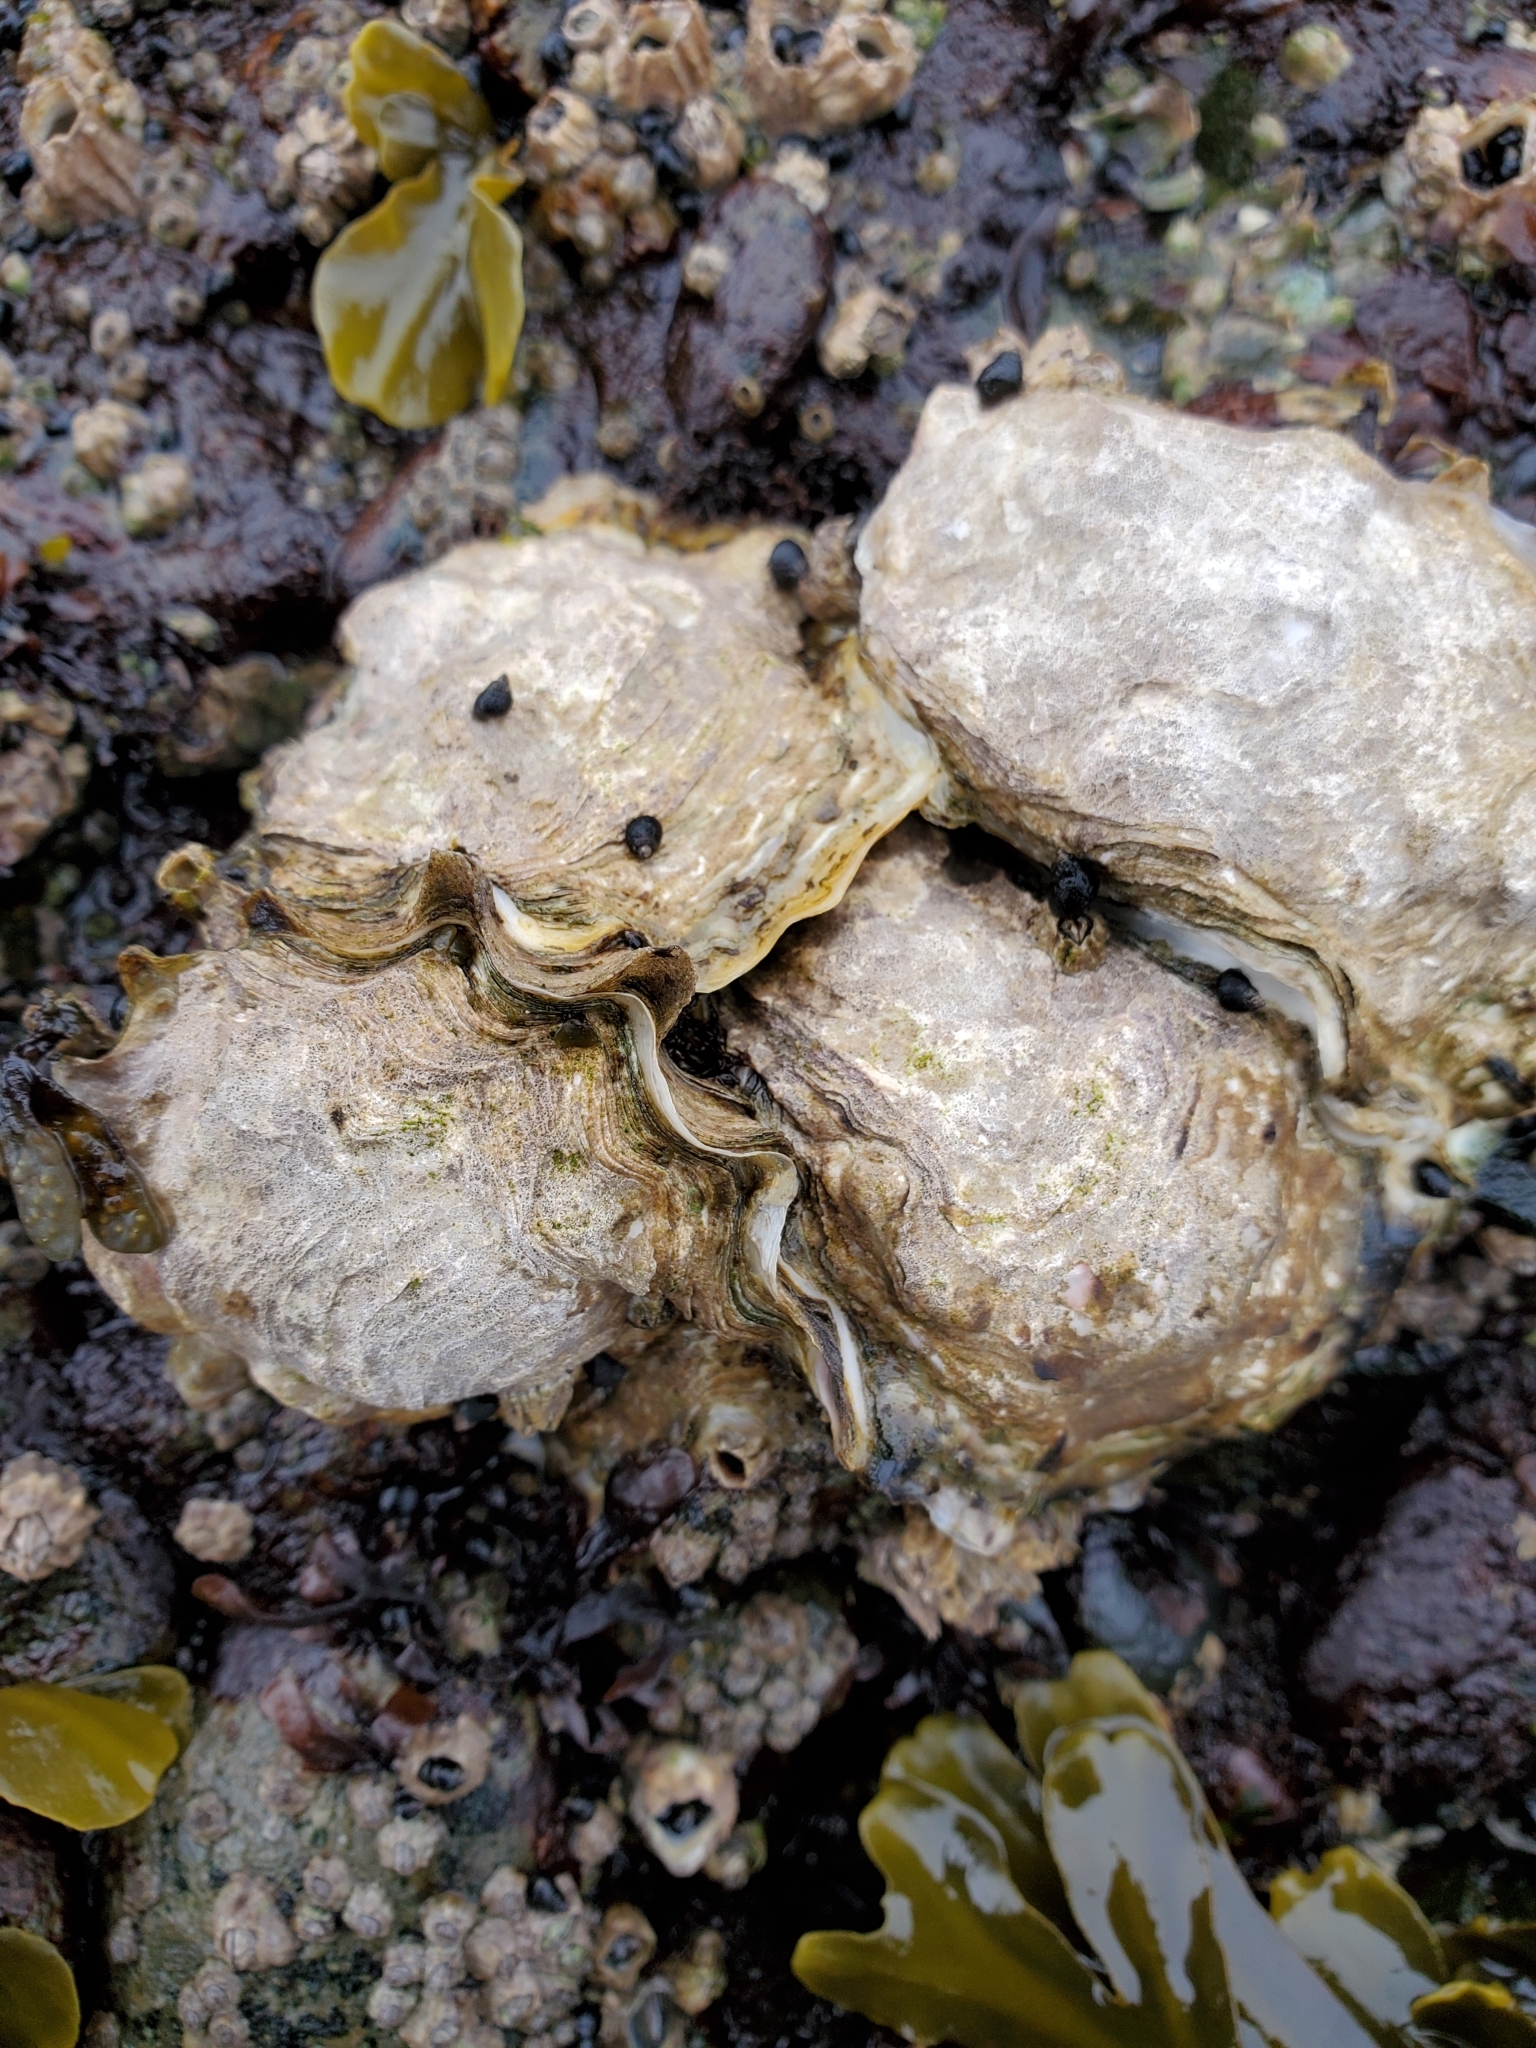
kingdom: Animalia
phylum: Mollusca
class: Bivalvia
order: Ostreida
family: Ostreidae
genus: Magallana
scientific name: Magallana gigas
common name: Pacific oyster
